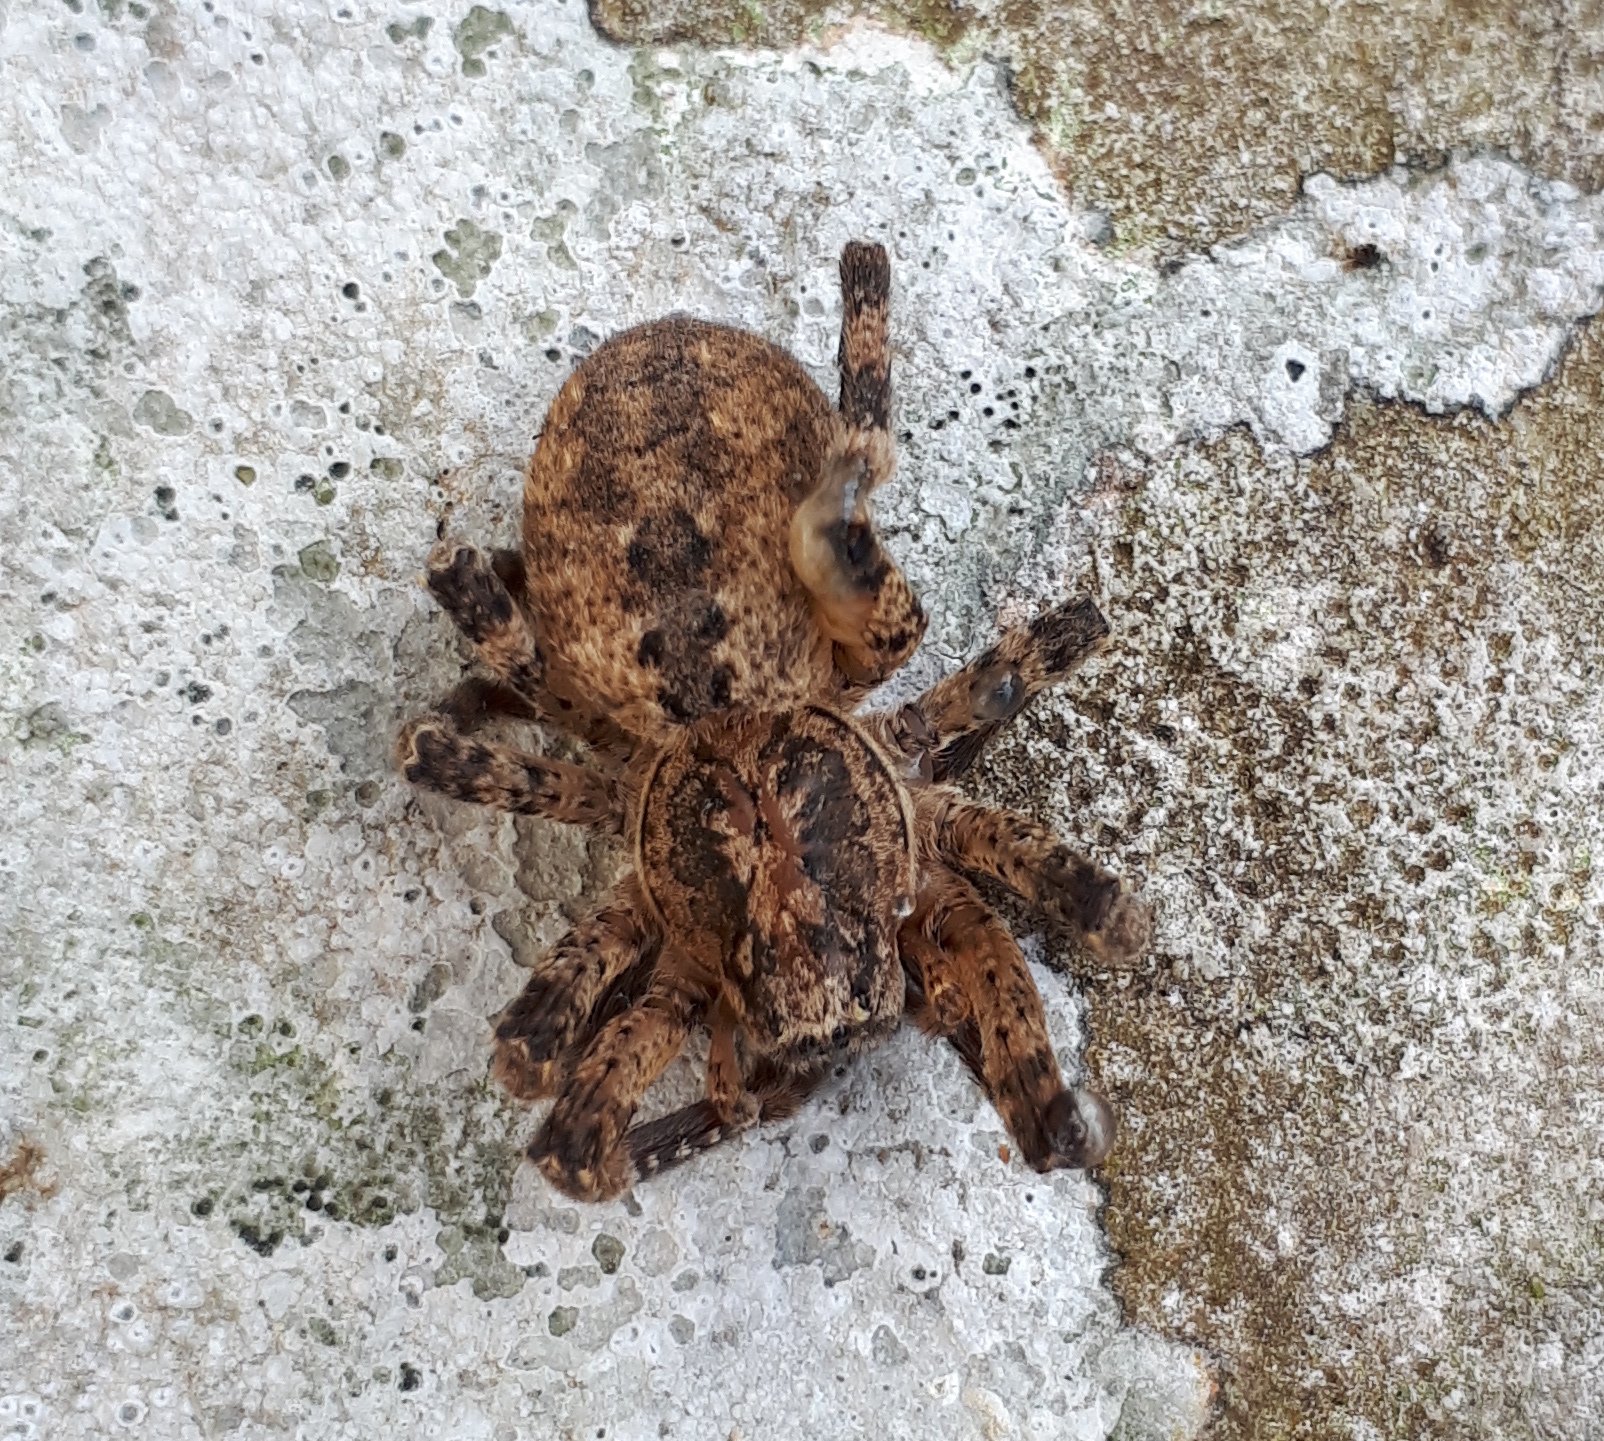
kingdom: Animalia
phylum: Arthropoda
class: Arachnida
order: Araneae
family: Zoropsidae
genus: Zoropsis
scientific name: Zoropsis spinimana
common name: Zoropsid spider
